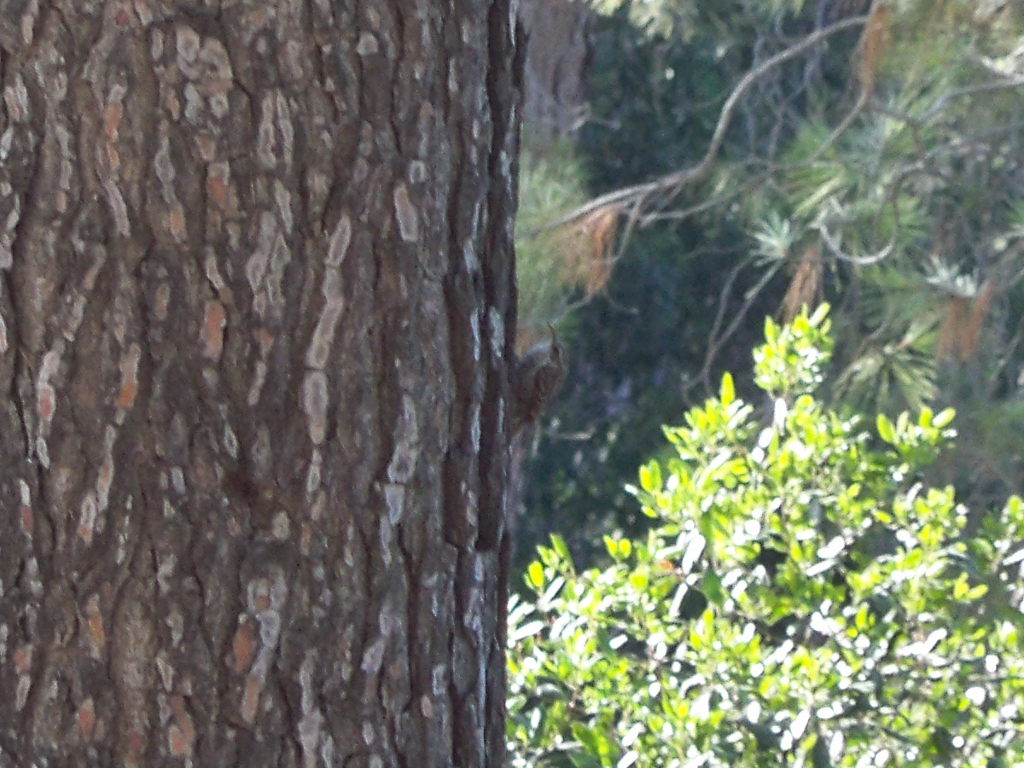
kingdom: Animalia
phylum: Chordata
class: Aves
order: Passeriformes
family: Certhiidae
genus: Certhia
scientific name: Certhia brachydactyla
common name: Short-toed treecreeper
